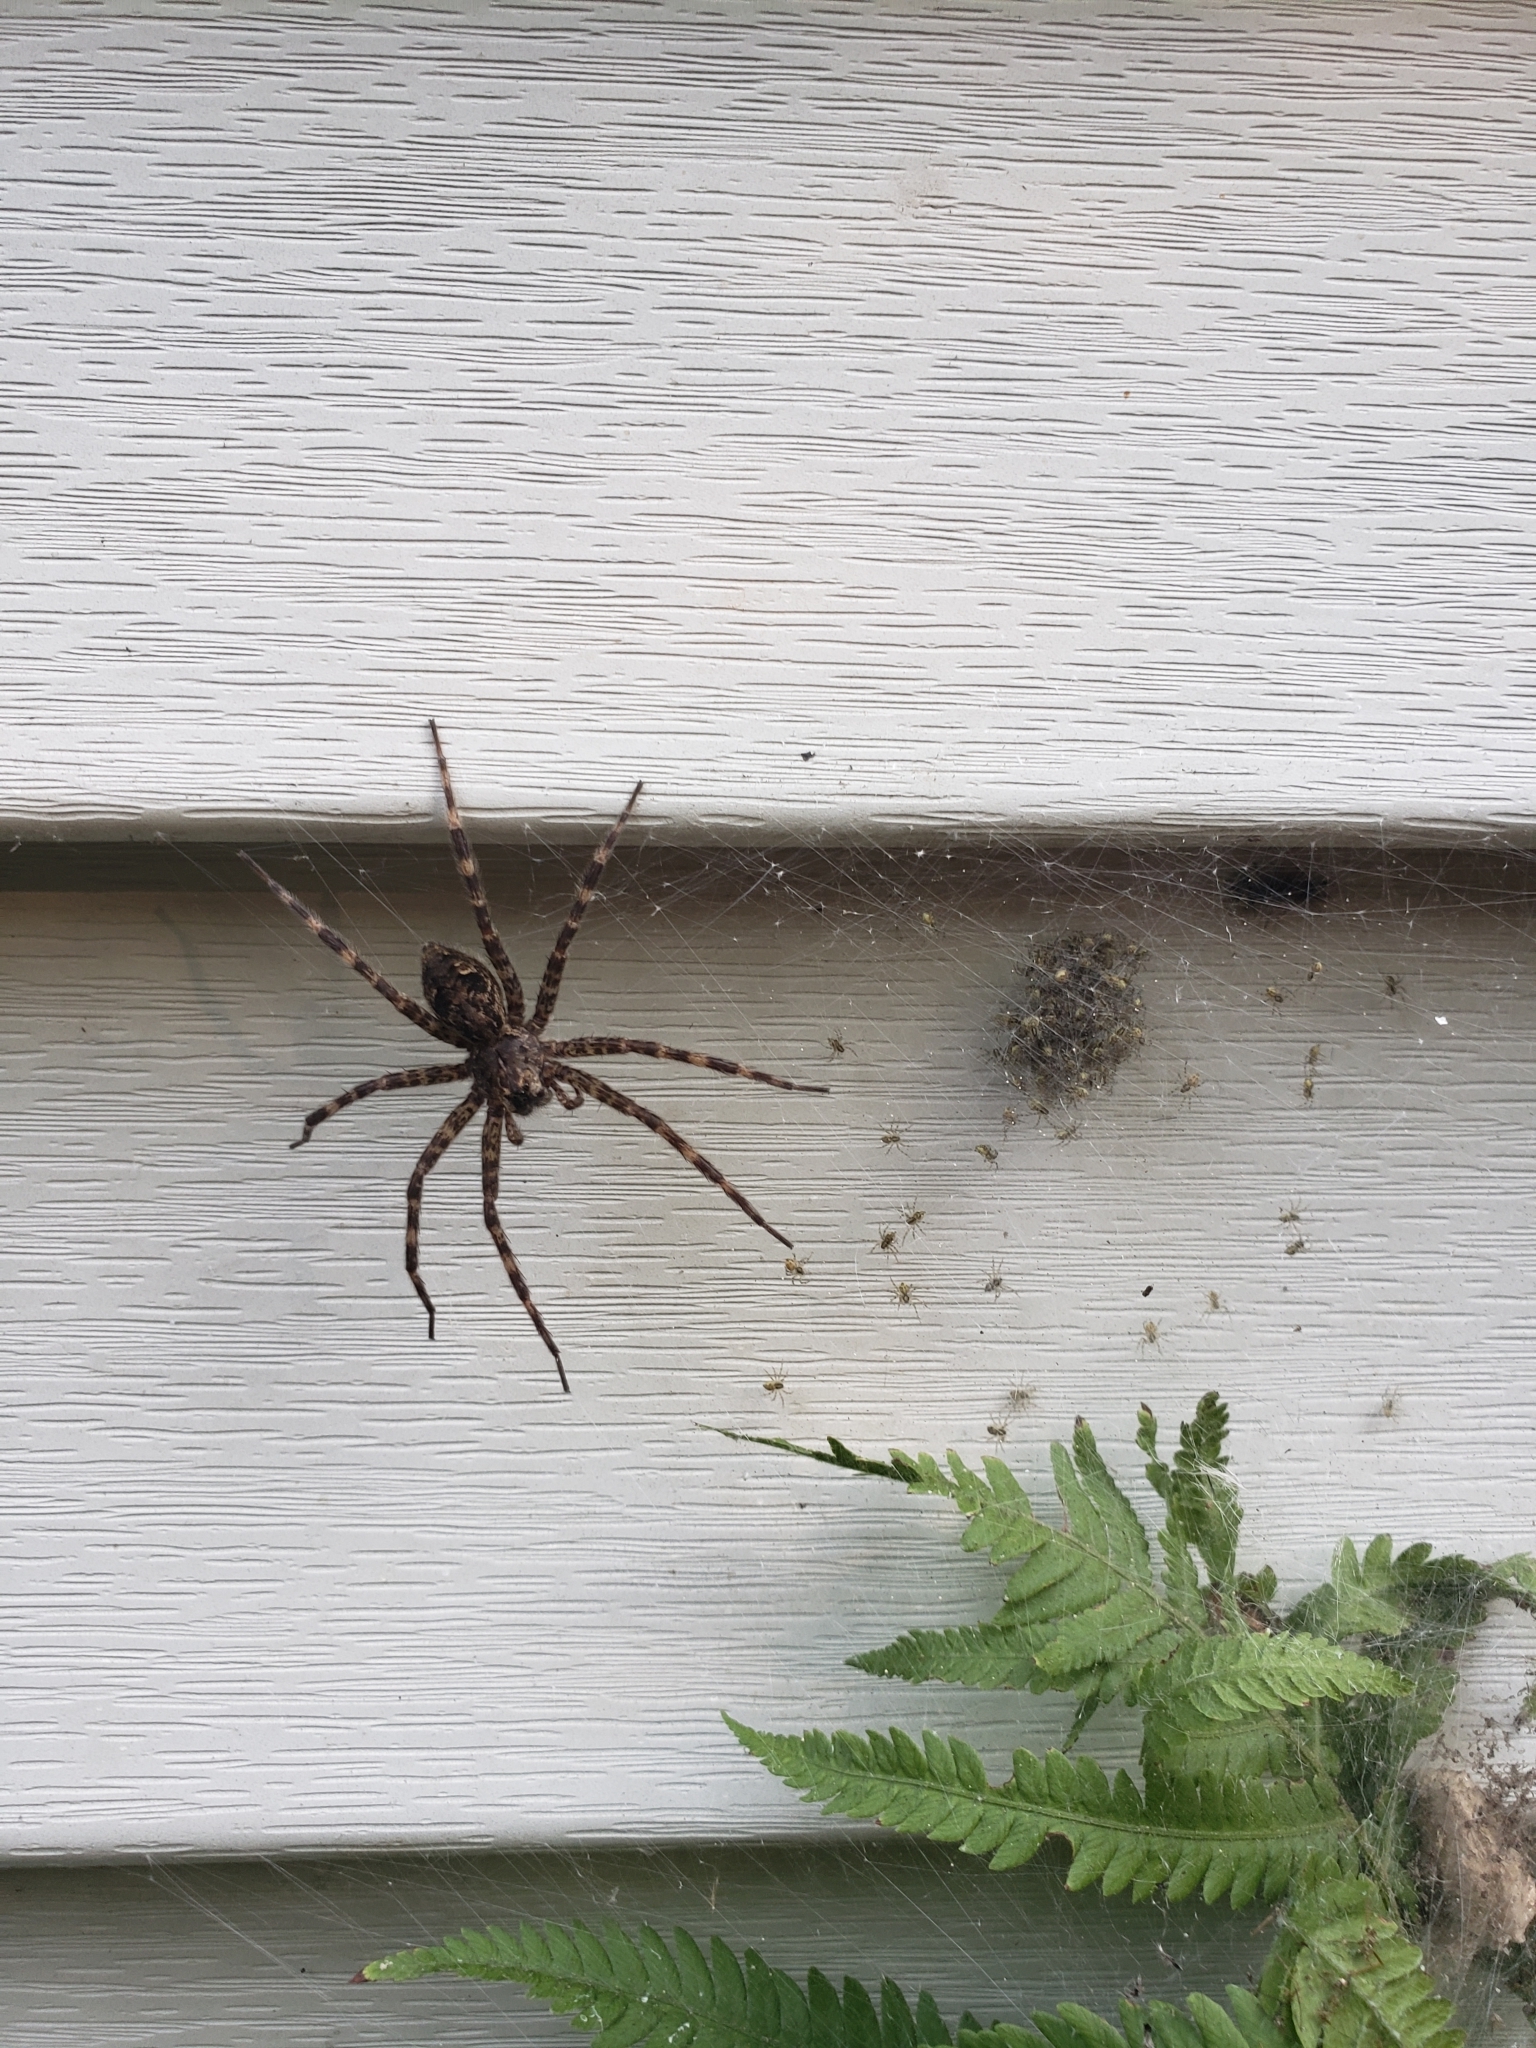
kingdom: Animalia
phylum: Arthropoda
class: Arachnida
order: Araneae
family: Pisauridae
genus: Dolomedes
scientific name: Dolomedes tenebrosus
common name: Dark fishing spider
